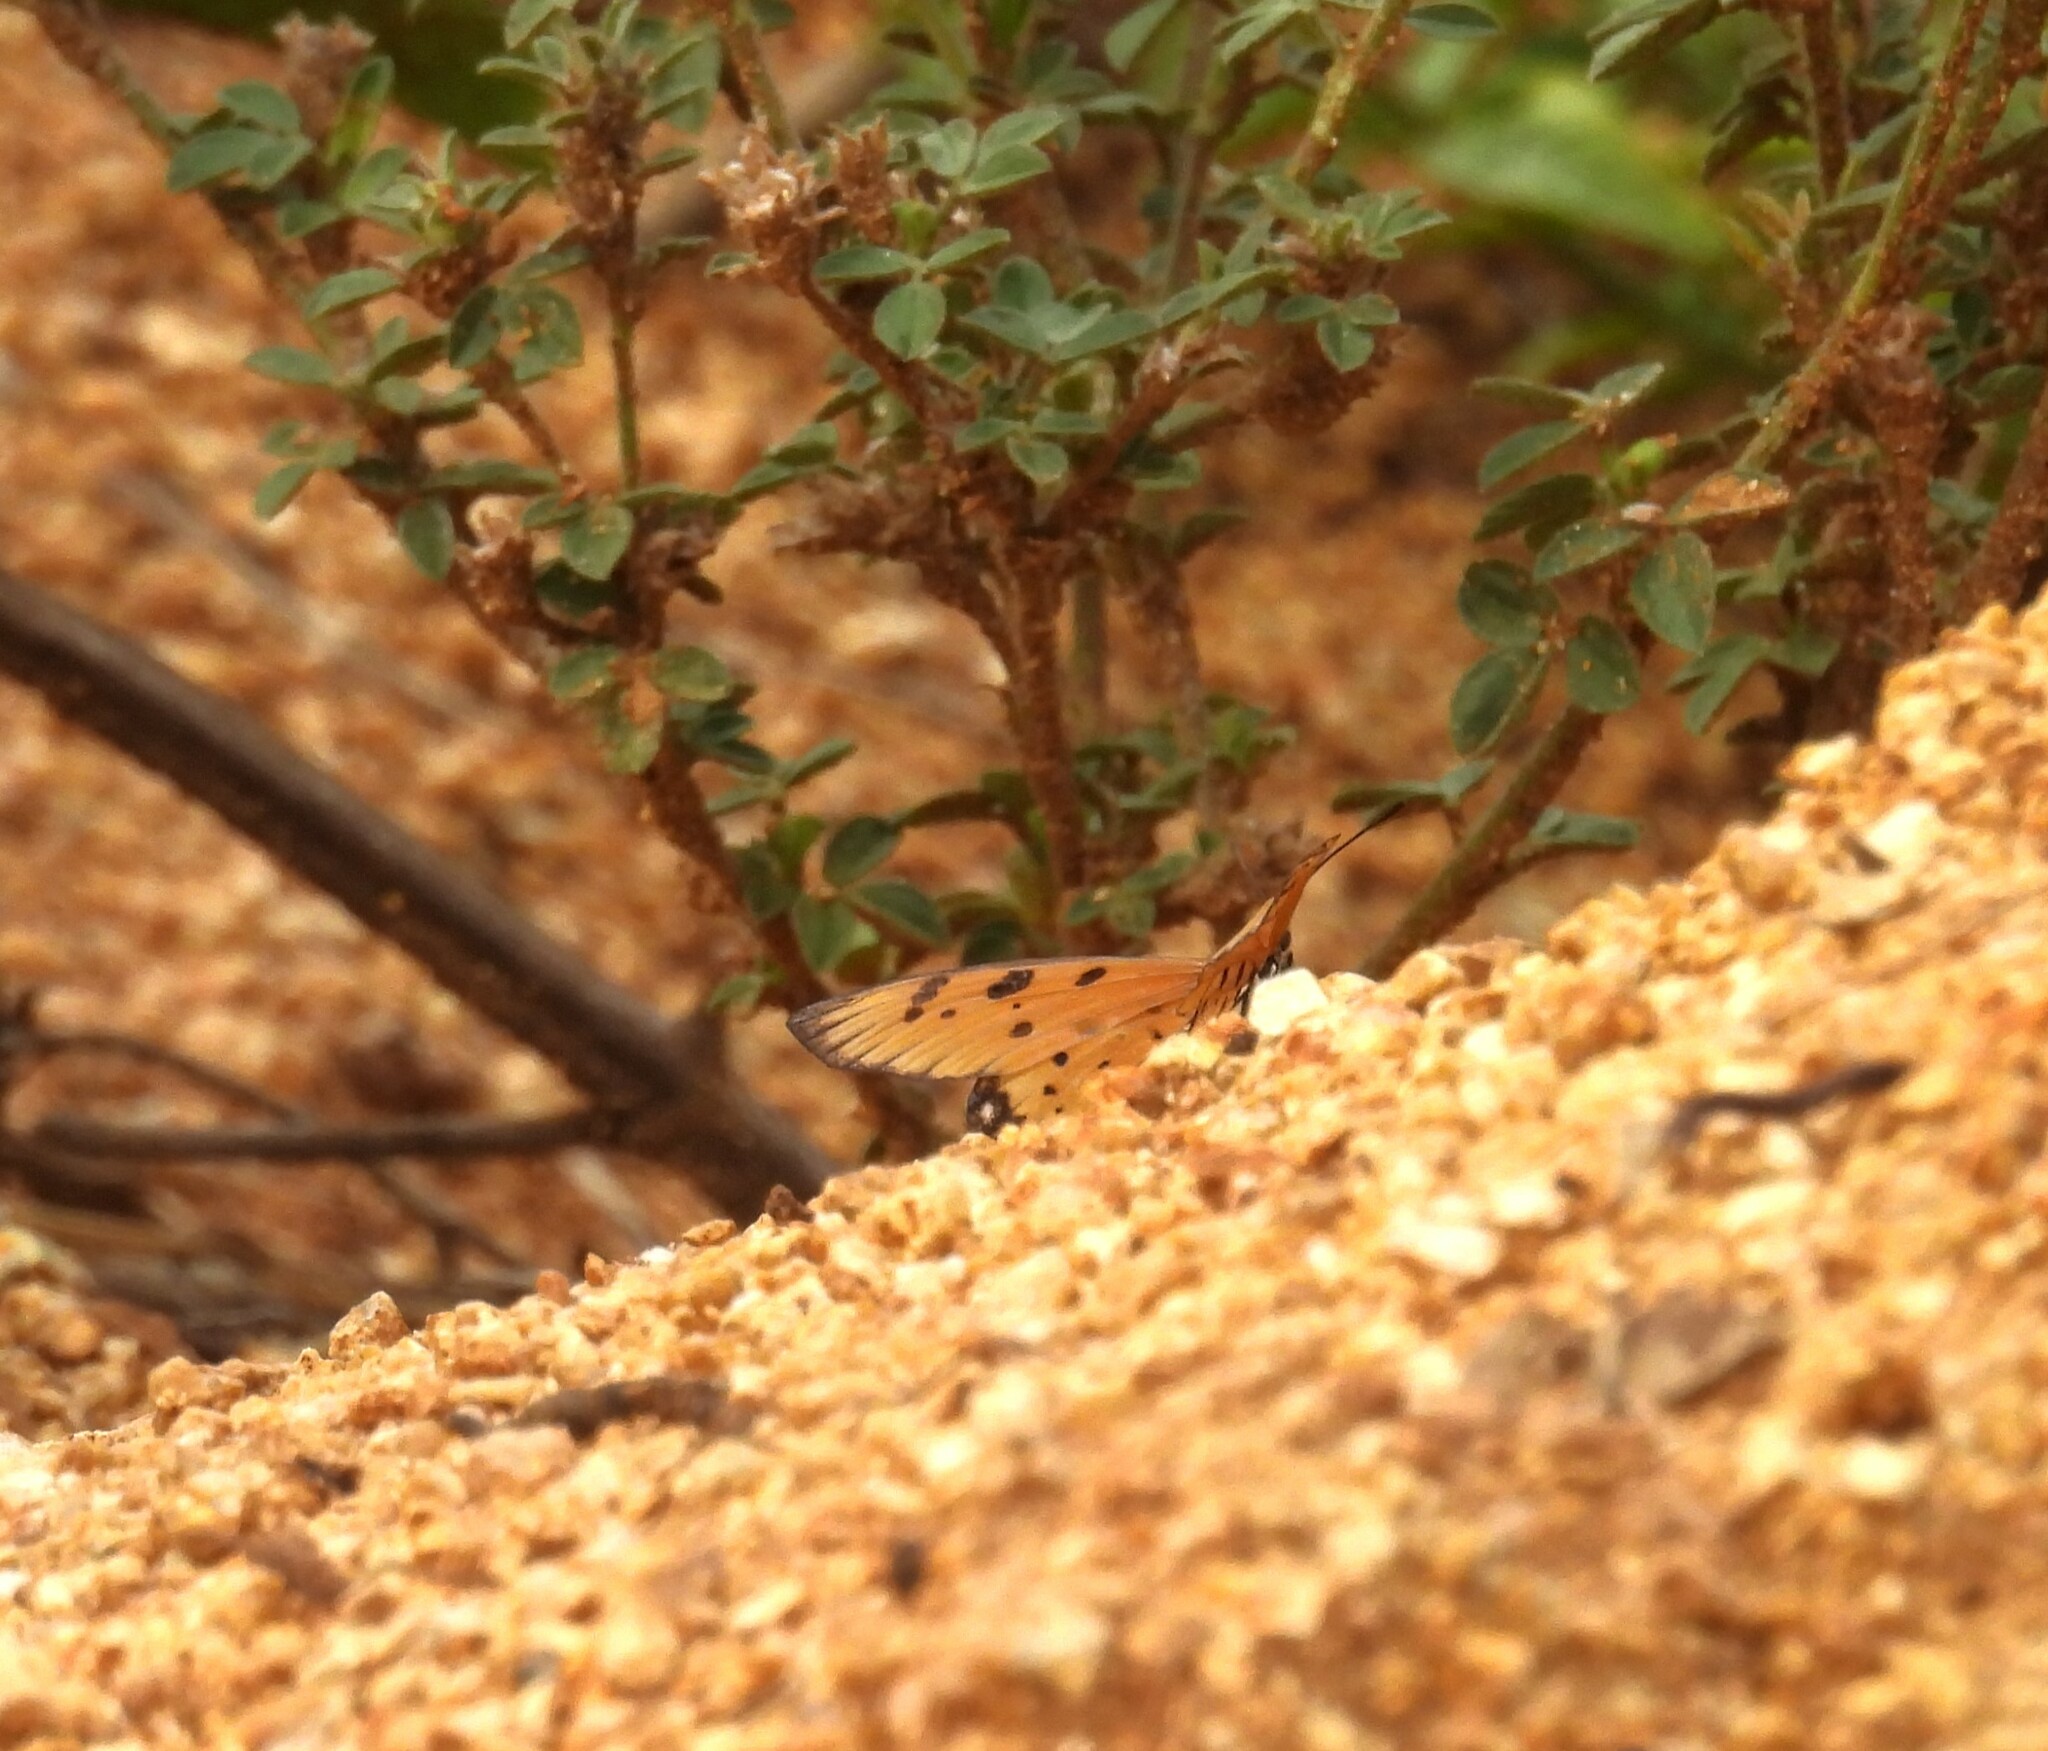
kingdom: Animalia
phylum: Arthropoda
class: Insecta
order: Lepidoptera
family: Nymphalidae
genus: Acraea
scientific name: Acraea terpsicore
